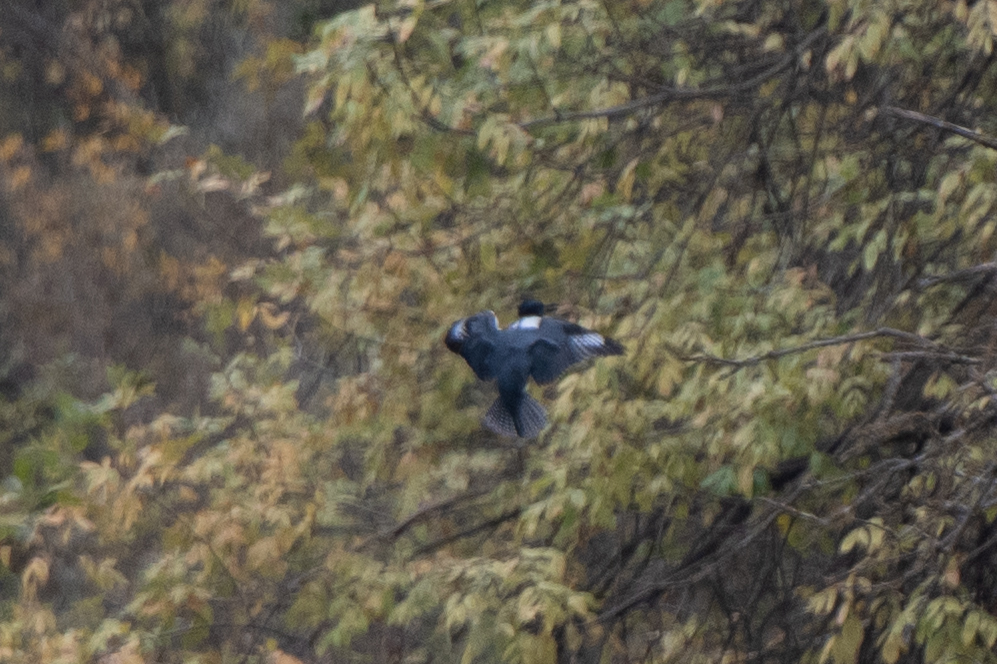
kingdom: Animalia
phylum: Chordata
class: Aves
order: Coraciiformes
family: Alcedinidae
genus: Megaceryle
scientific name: Megaceryle alcyon
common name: Belted kingfisher
